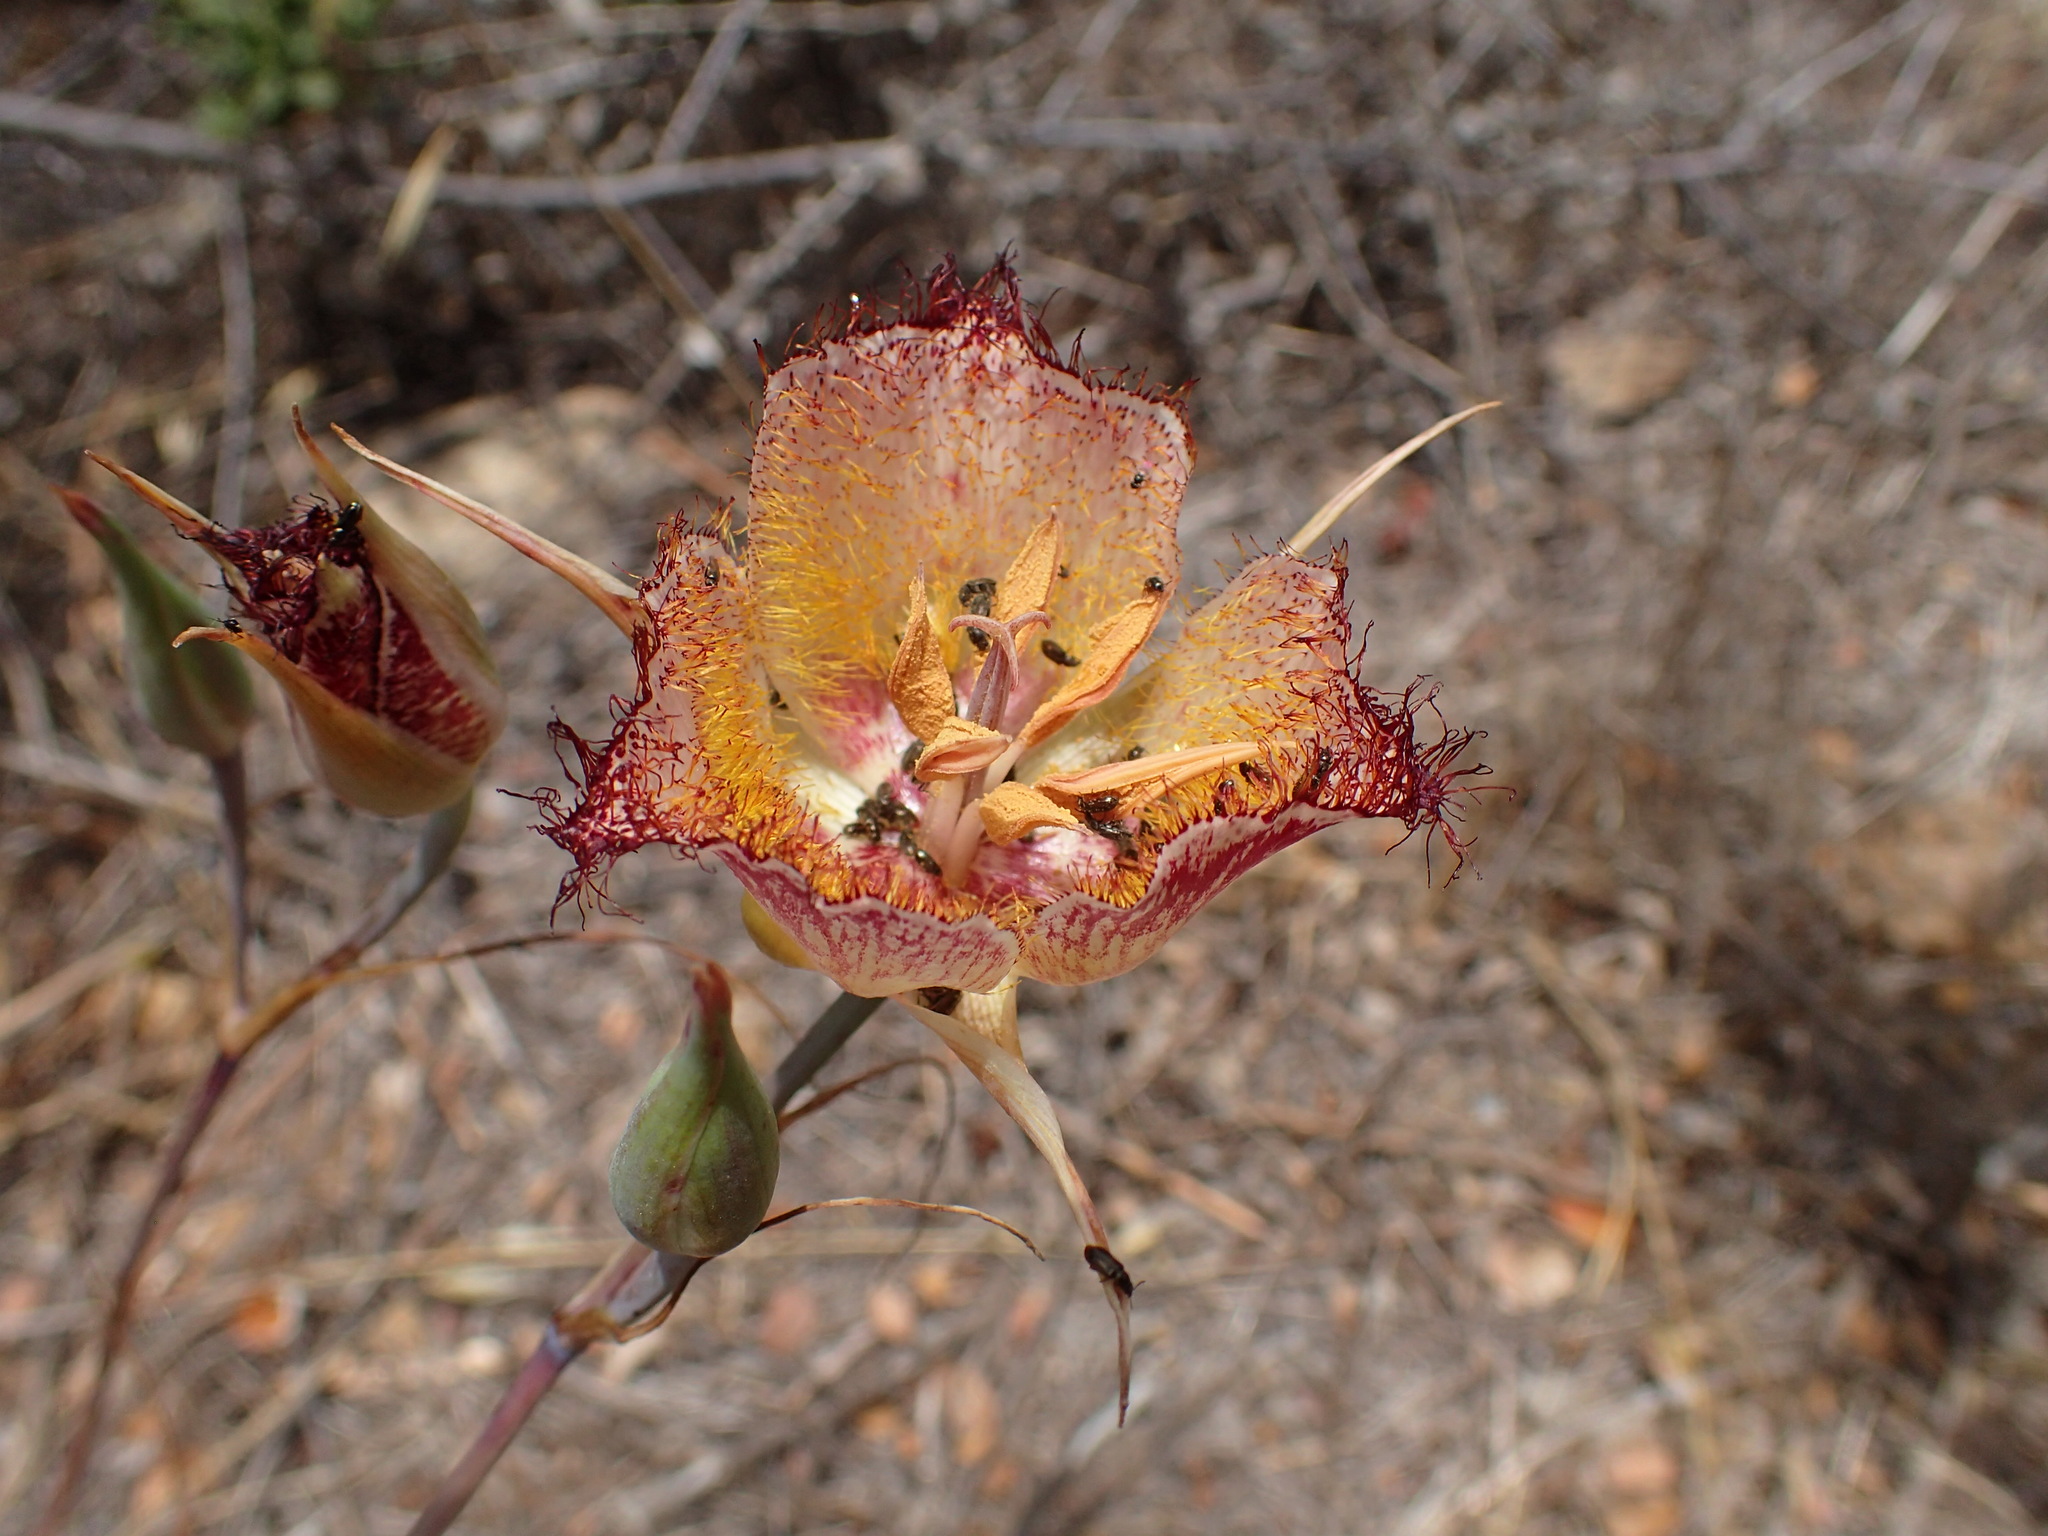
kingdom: Plantae
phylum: Tracheophyta
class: Liliopsida
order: Liliales
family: Liliaceae
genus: Calochortus
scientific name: Calochortus fimbriatus
